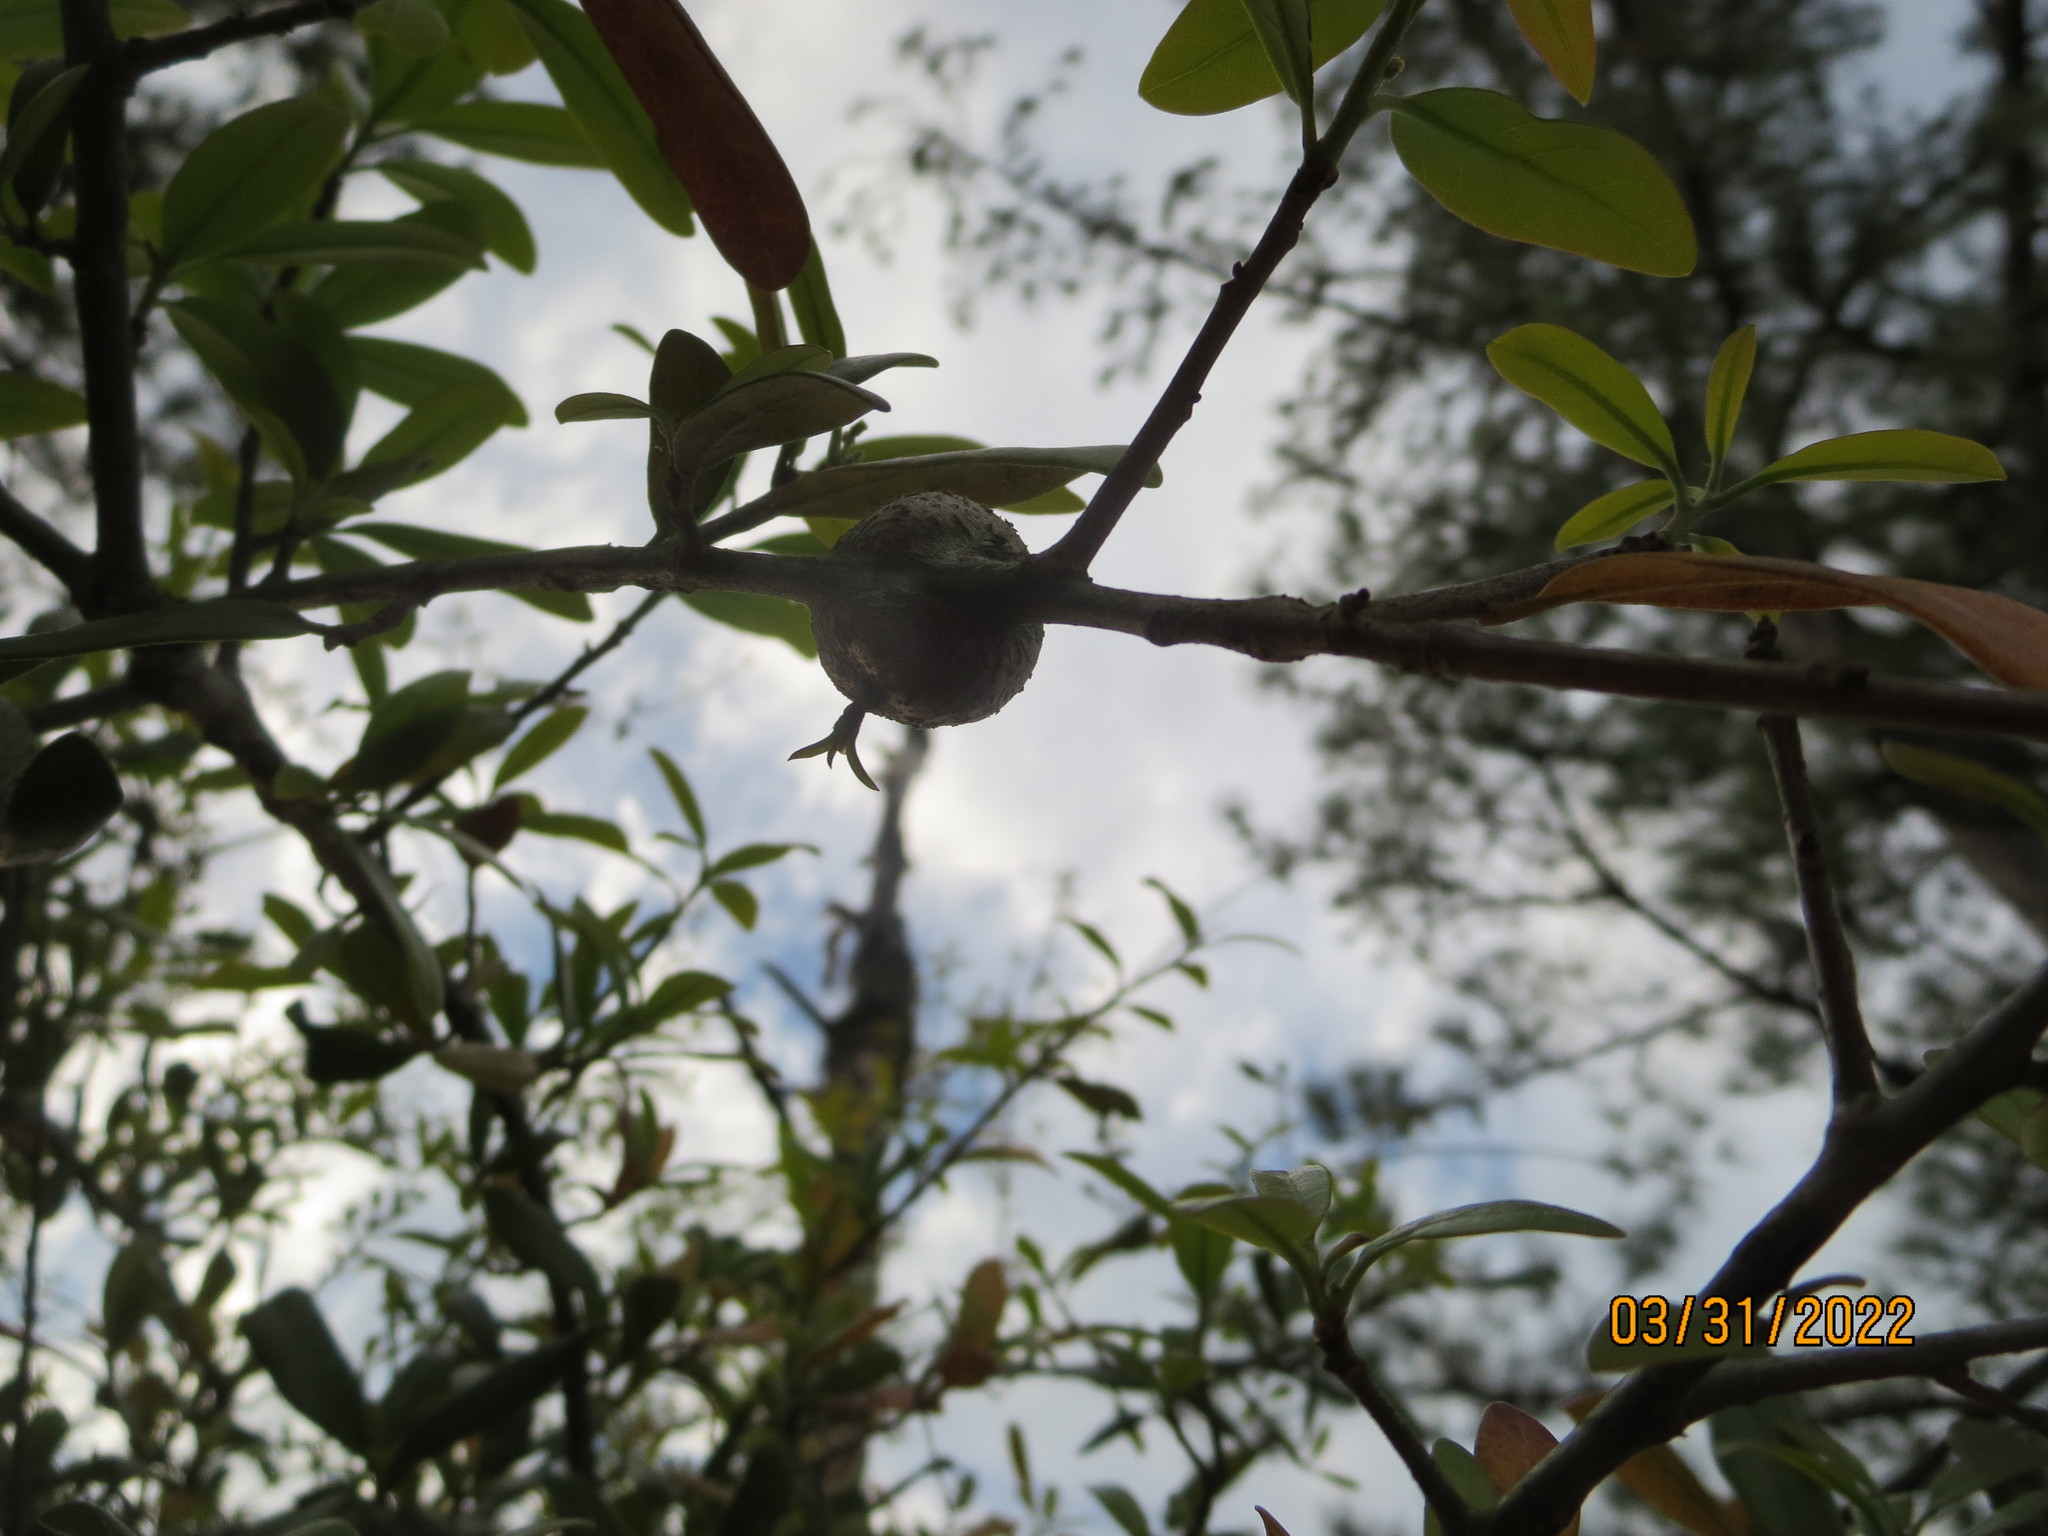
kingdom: Animalia
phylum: Arthropoda
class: Insecta
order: Hymenoptera
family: Cynipidae
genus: Callirhytis
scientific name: Callirhytis
